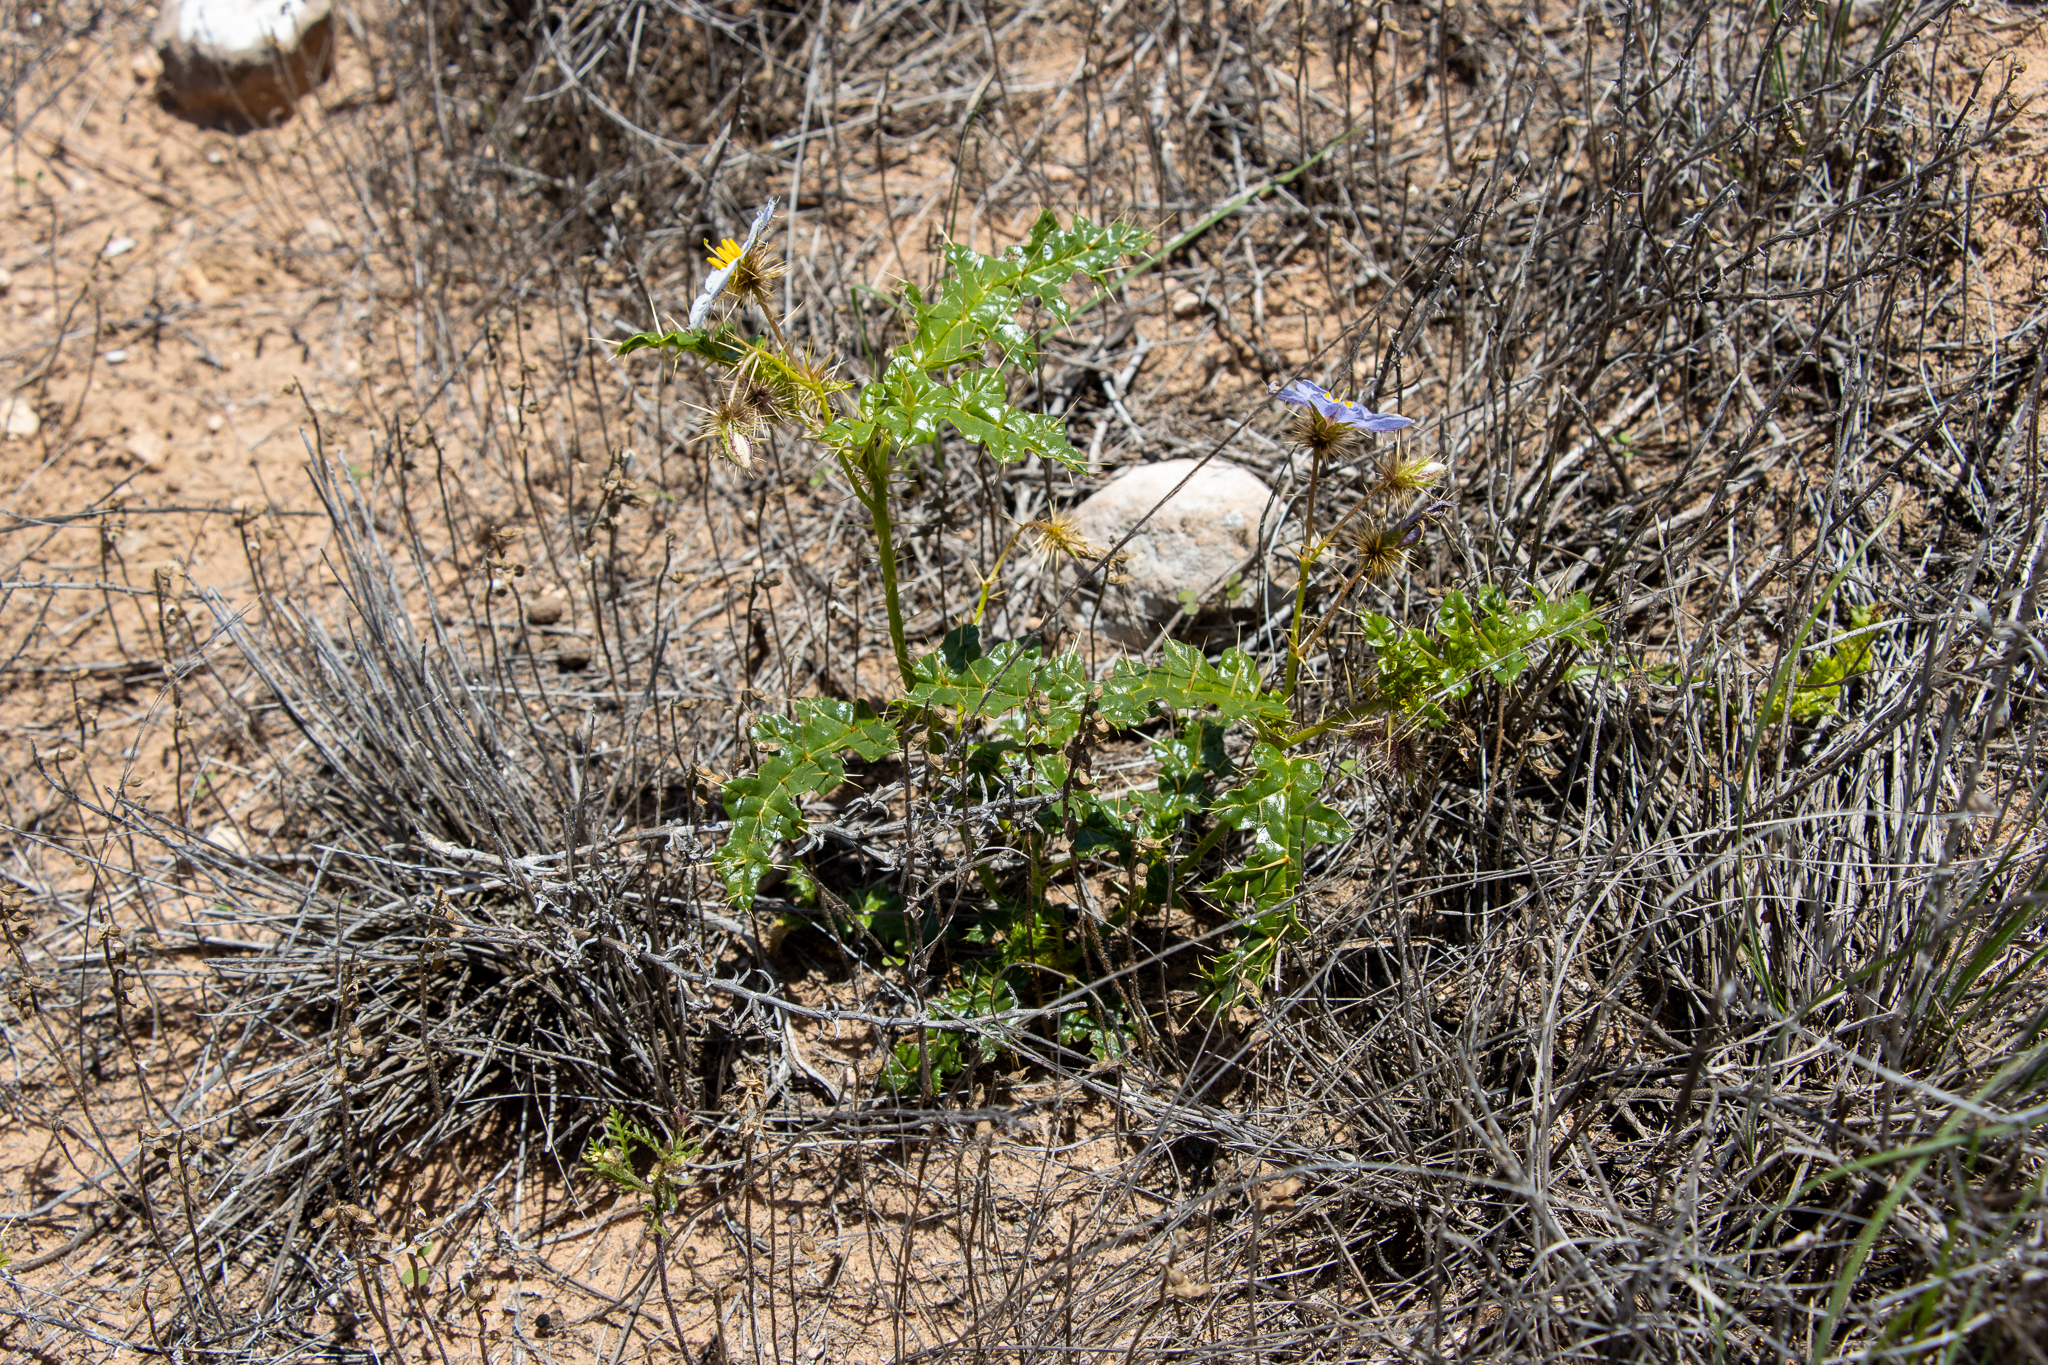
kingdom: Plantae
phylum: Tracheophyta
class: Magnoliopsida
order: Solanales
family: Solanaceae
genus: Solanum
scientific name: Solanum hystrix
